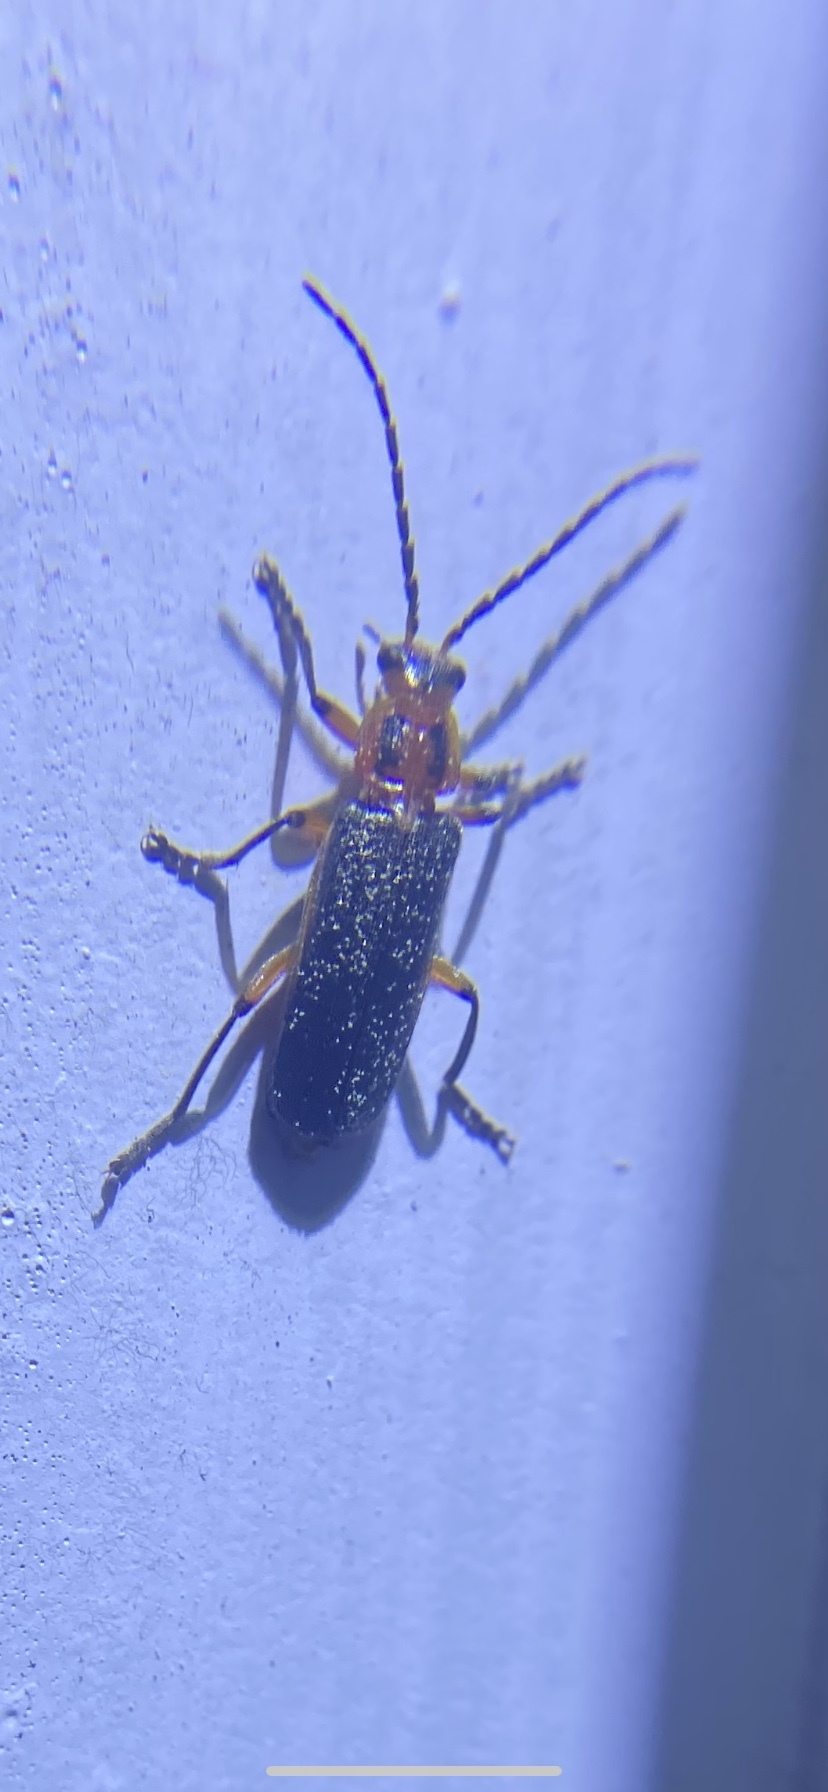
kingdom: Animalia
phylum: Arthropoda
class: Insecta
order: Coleoptera
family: Cantharidae
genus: Atalantycha
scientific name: Atalantycha bilineata
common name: Two-lined leatherwing
